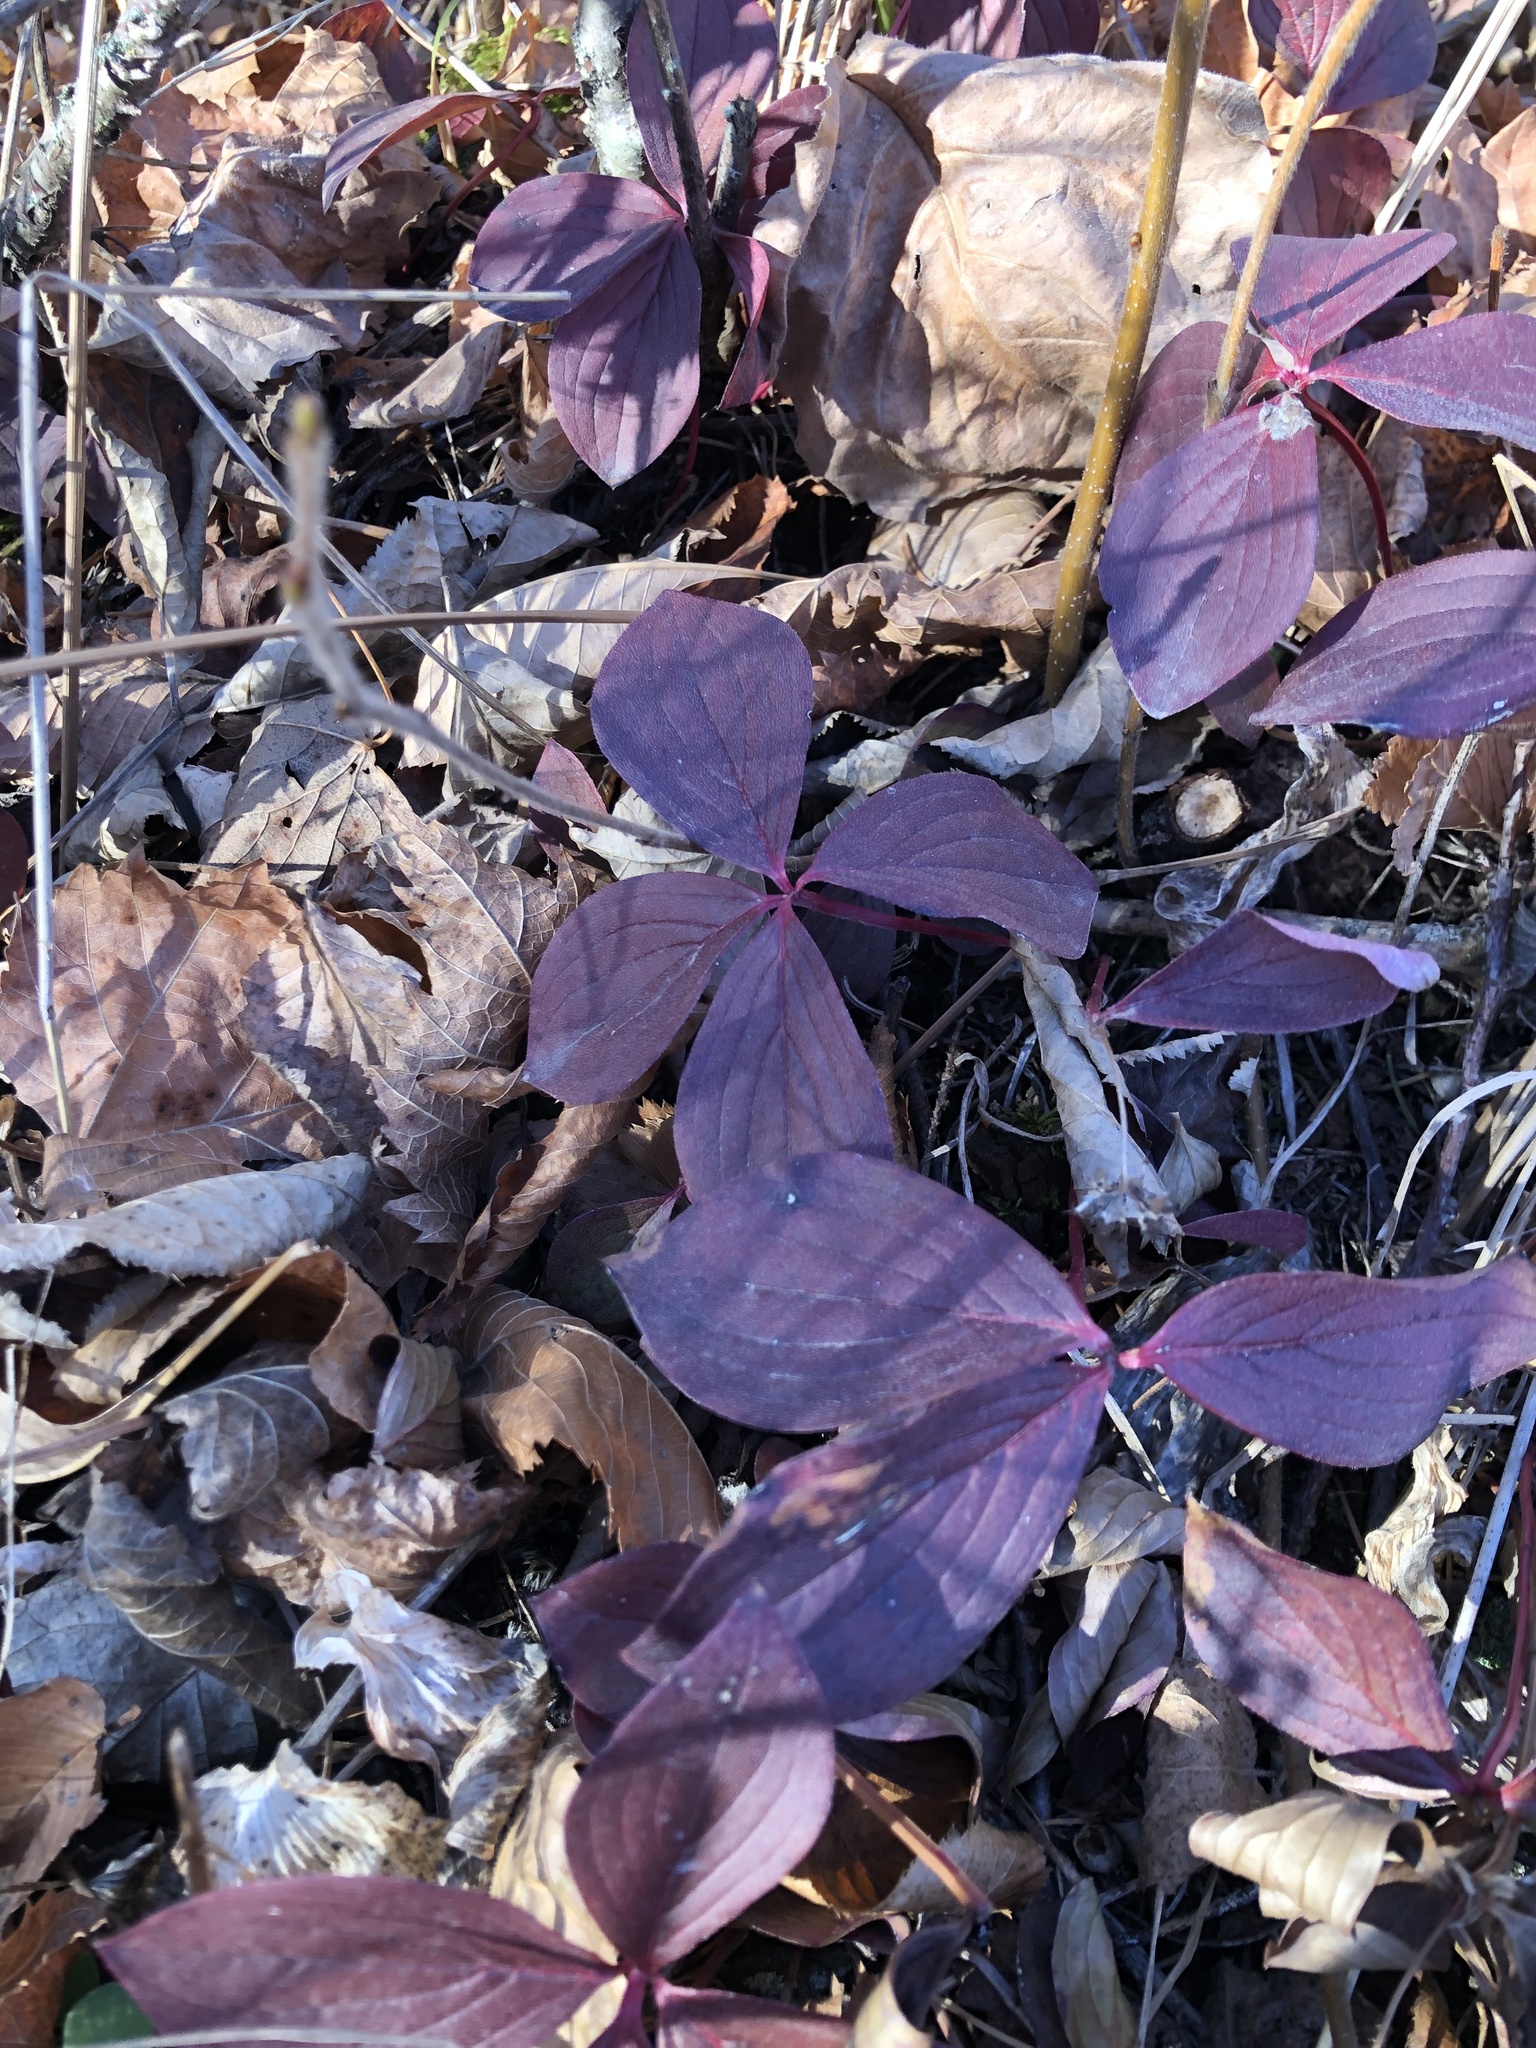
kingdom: Plantae
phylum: Tracheophyta
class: Magnoliopsida
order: Cornales
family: Cornaceae
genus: Cornus
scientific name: Cornus canadensis
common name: Creeping dogwood
